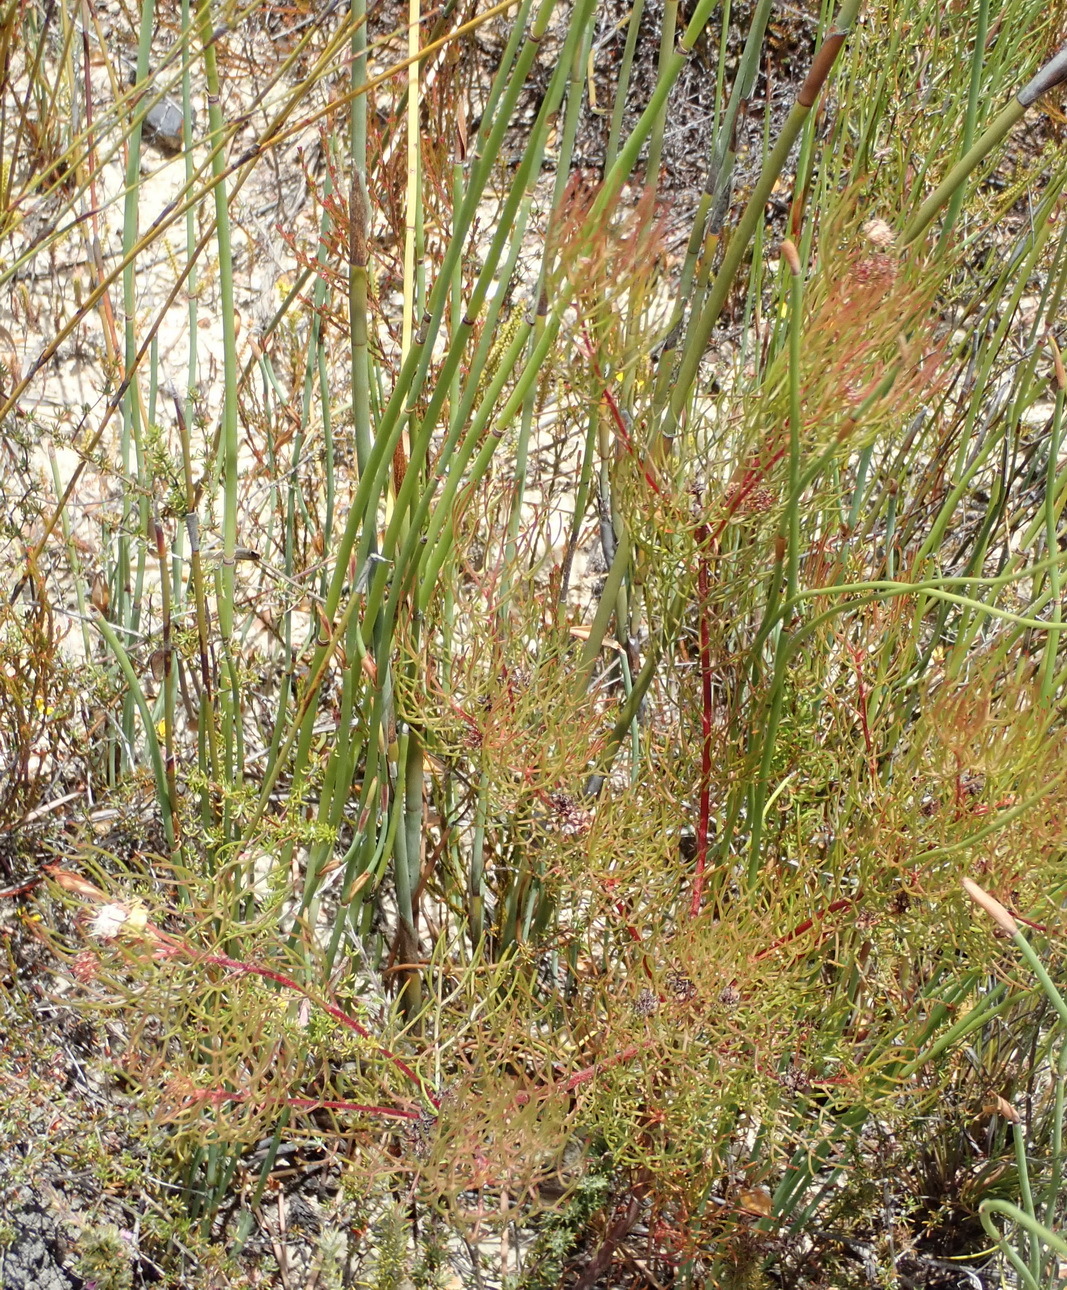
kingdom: Plantae
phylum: Tracheophyta
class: Magnoliopsida
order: Proteales
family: Proteaceae
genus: Serruria
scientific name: Serruria fasciflora
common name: Common pin spiderhead
